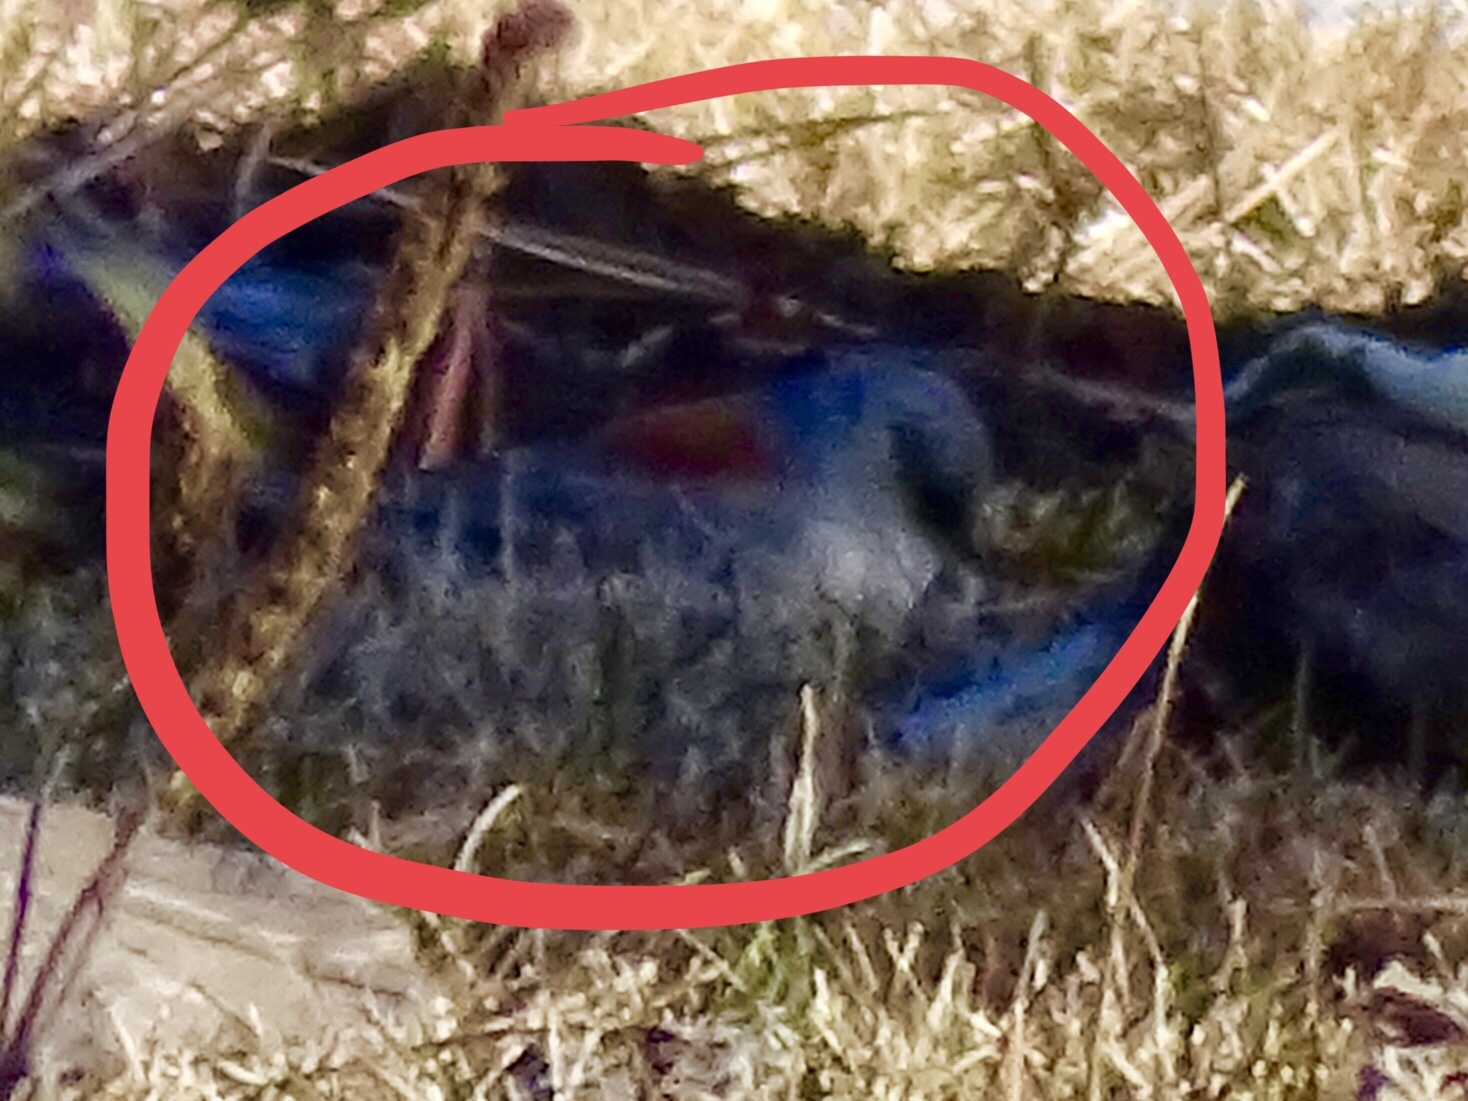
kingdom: Animalia
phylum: Chordata
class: Aves
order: Passeriformes
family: Passerellidae
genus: Junco
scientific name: Junco hyemalis
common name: Dark-eyed junco
